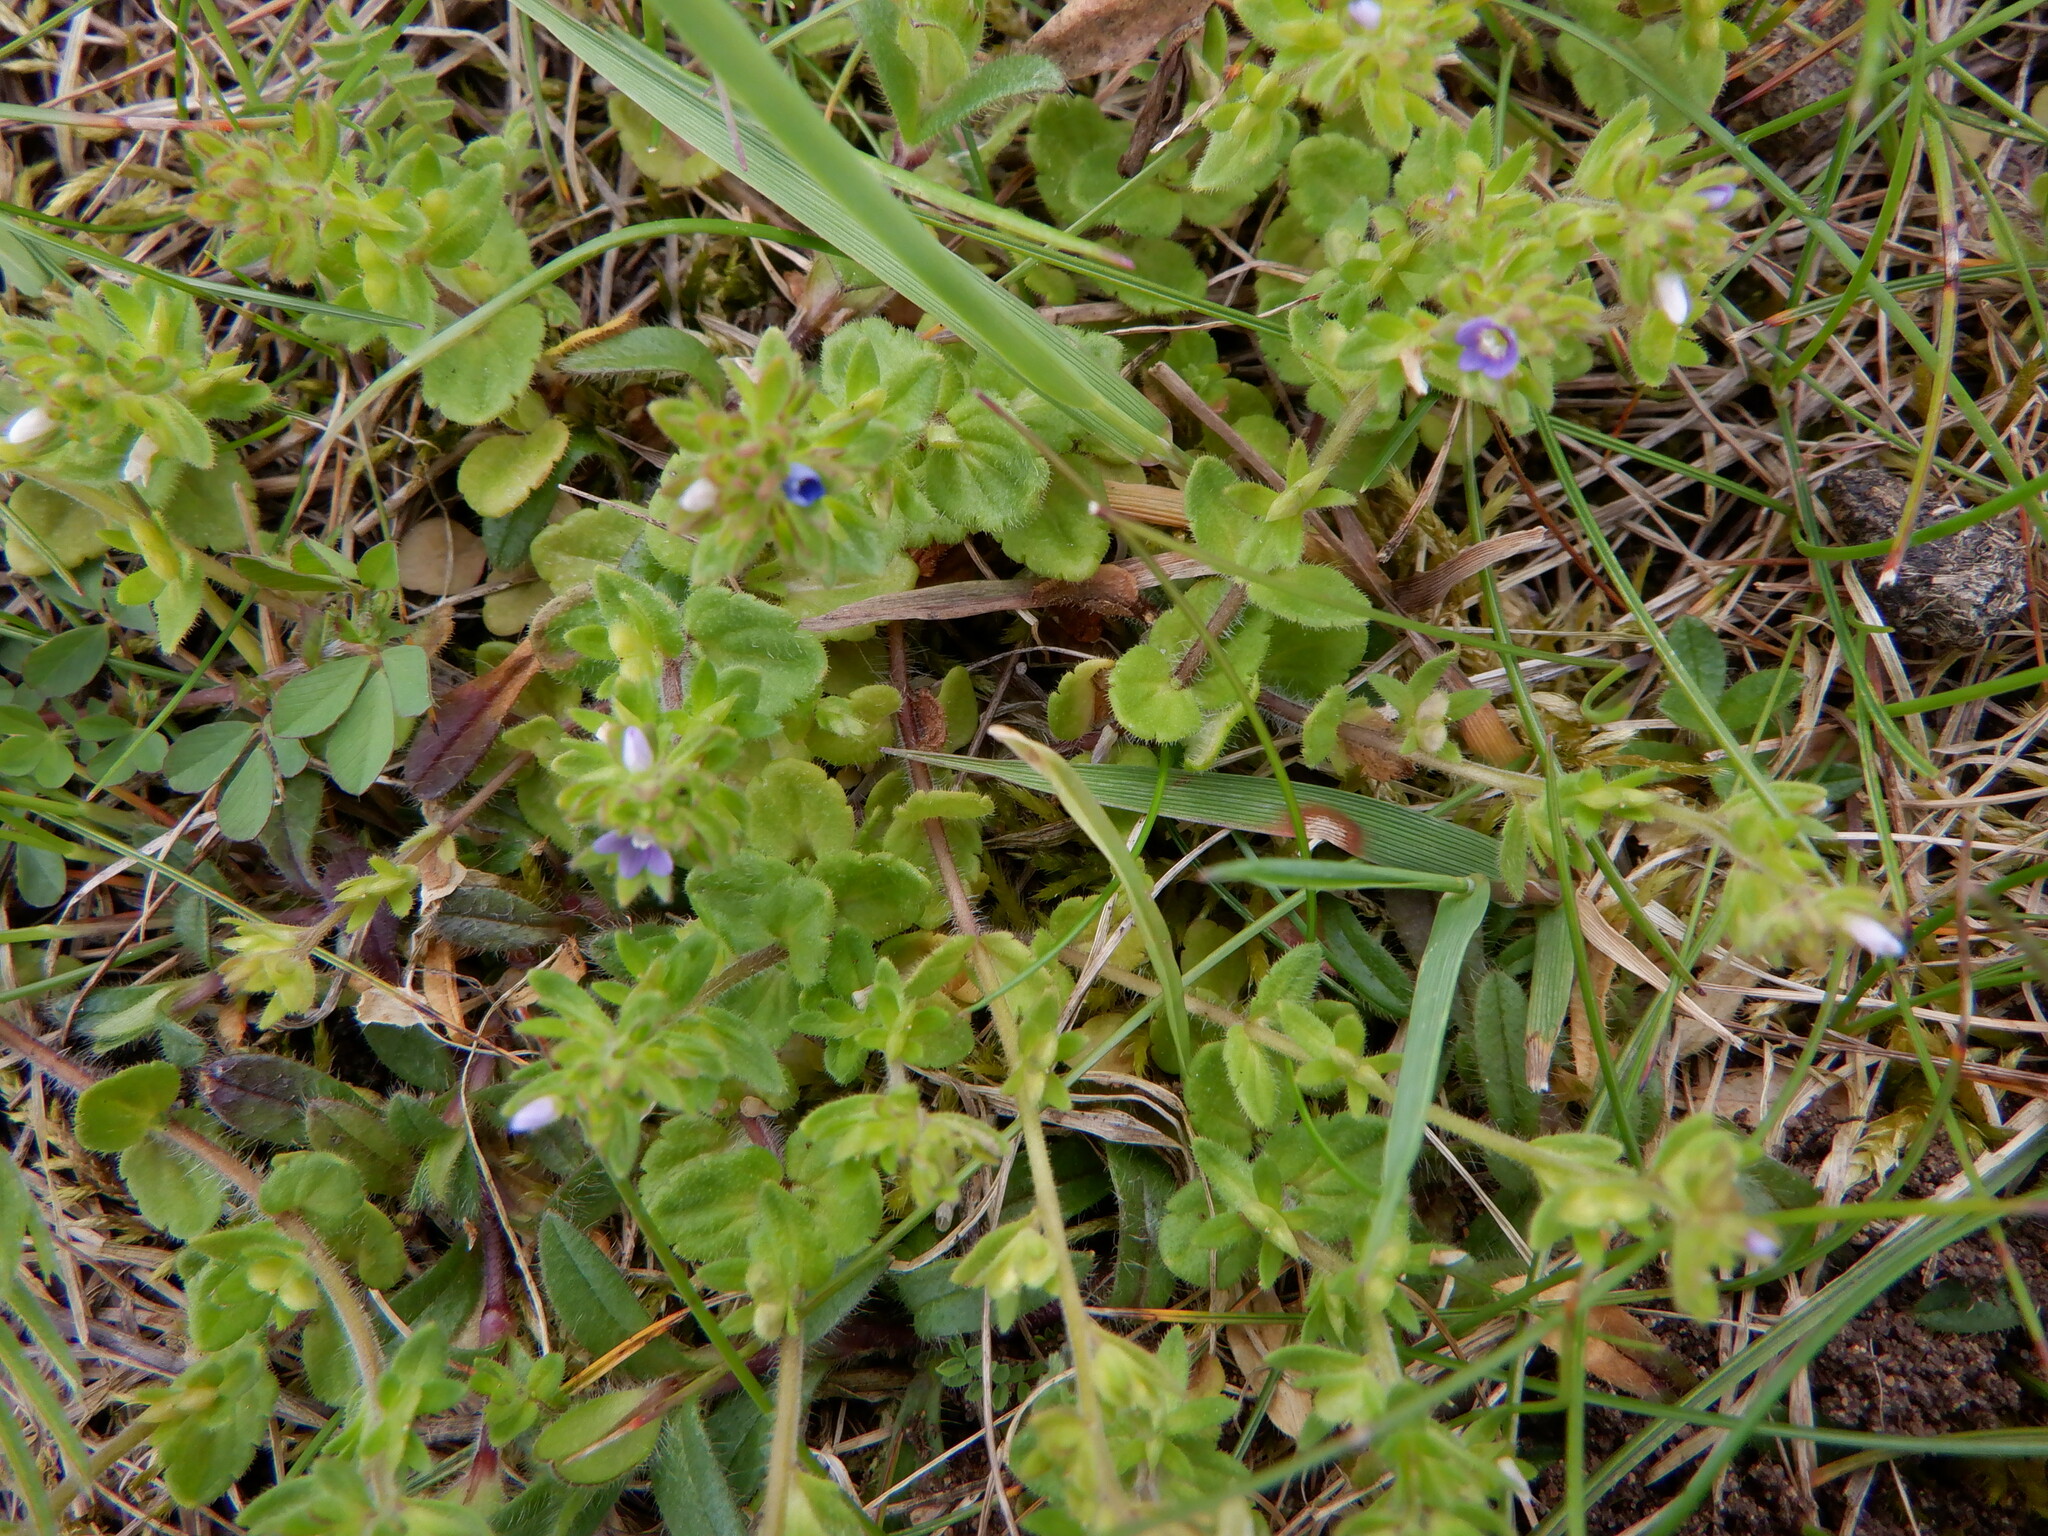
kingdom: Plantae
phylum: Tracheophyta
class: Magnoliopsida
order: Lamiales
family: Plantaginaceae
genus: Veronica
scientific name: Veronica arvensis
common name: Corn speedwell
